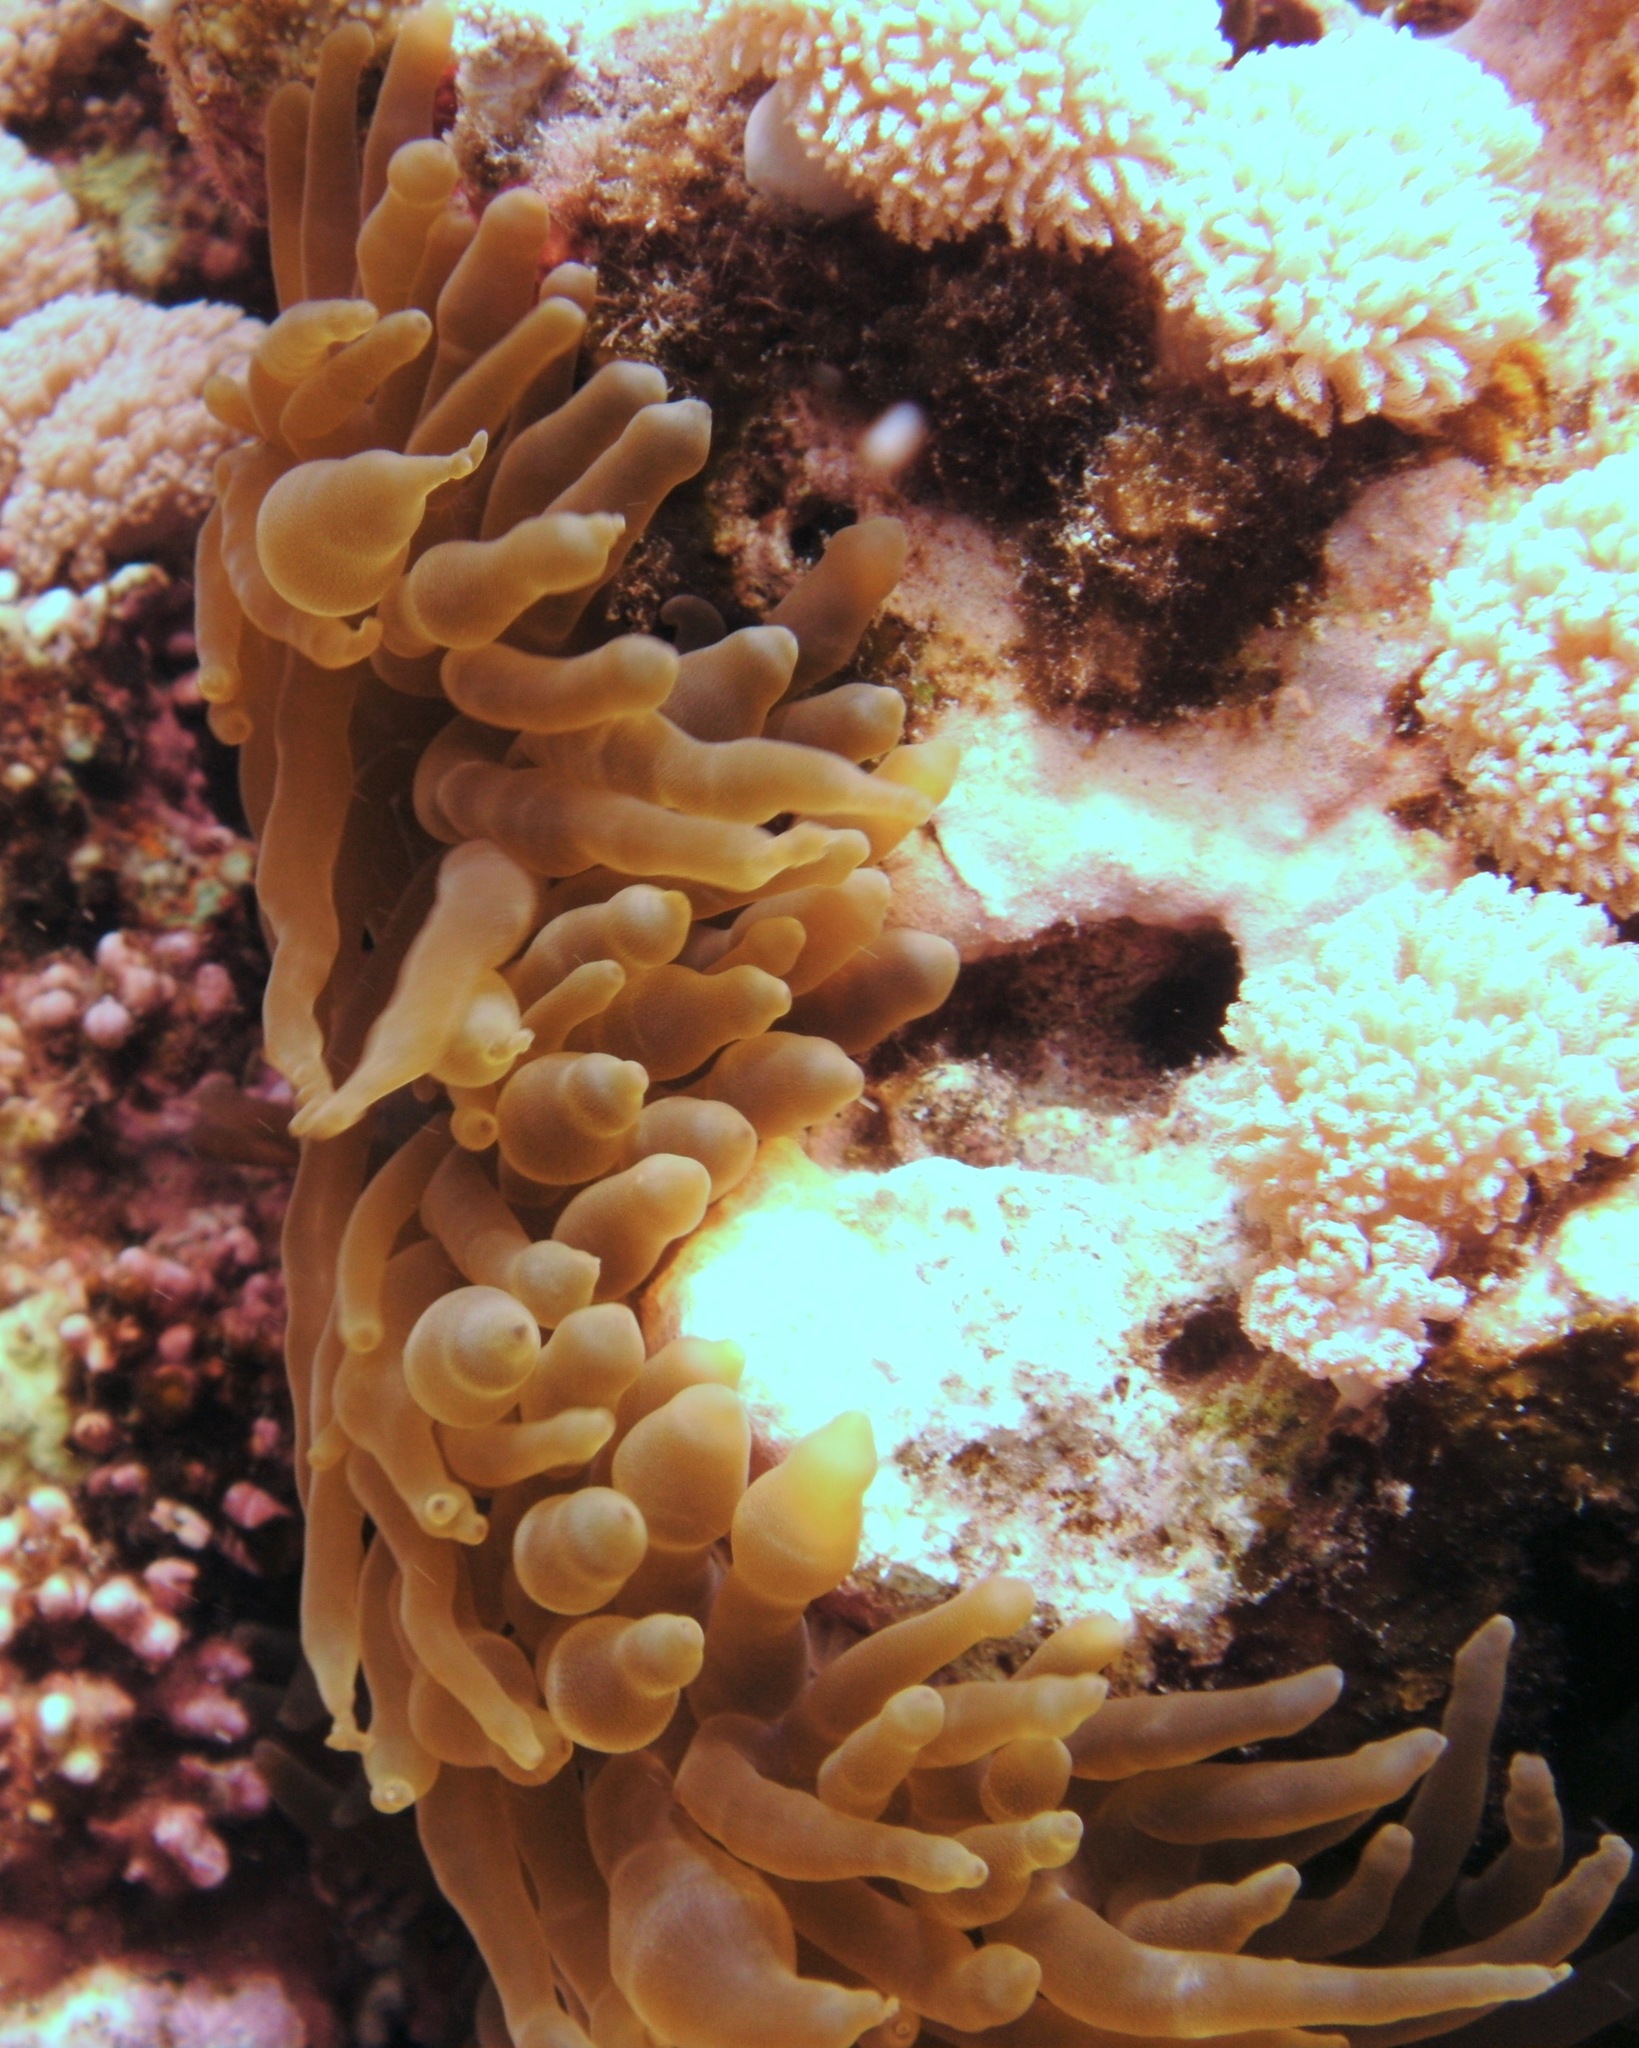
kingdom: Animalia
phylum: Cnidaria
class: Anthozoa
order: Actiniaria
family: Actiniidae
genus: Entacmaea
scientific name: Entacmaea quadricolor
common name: Bulb tentacle sea anemone
